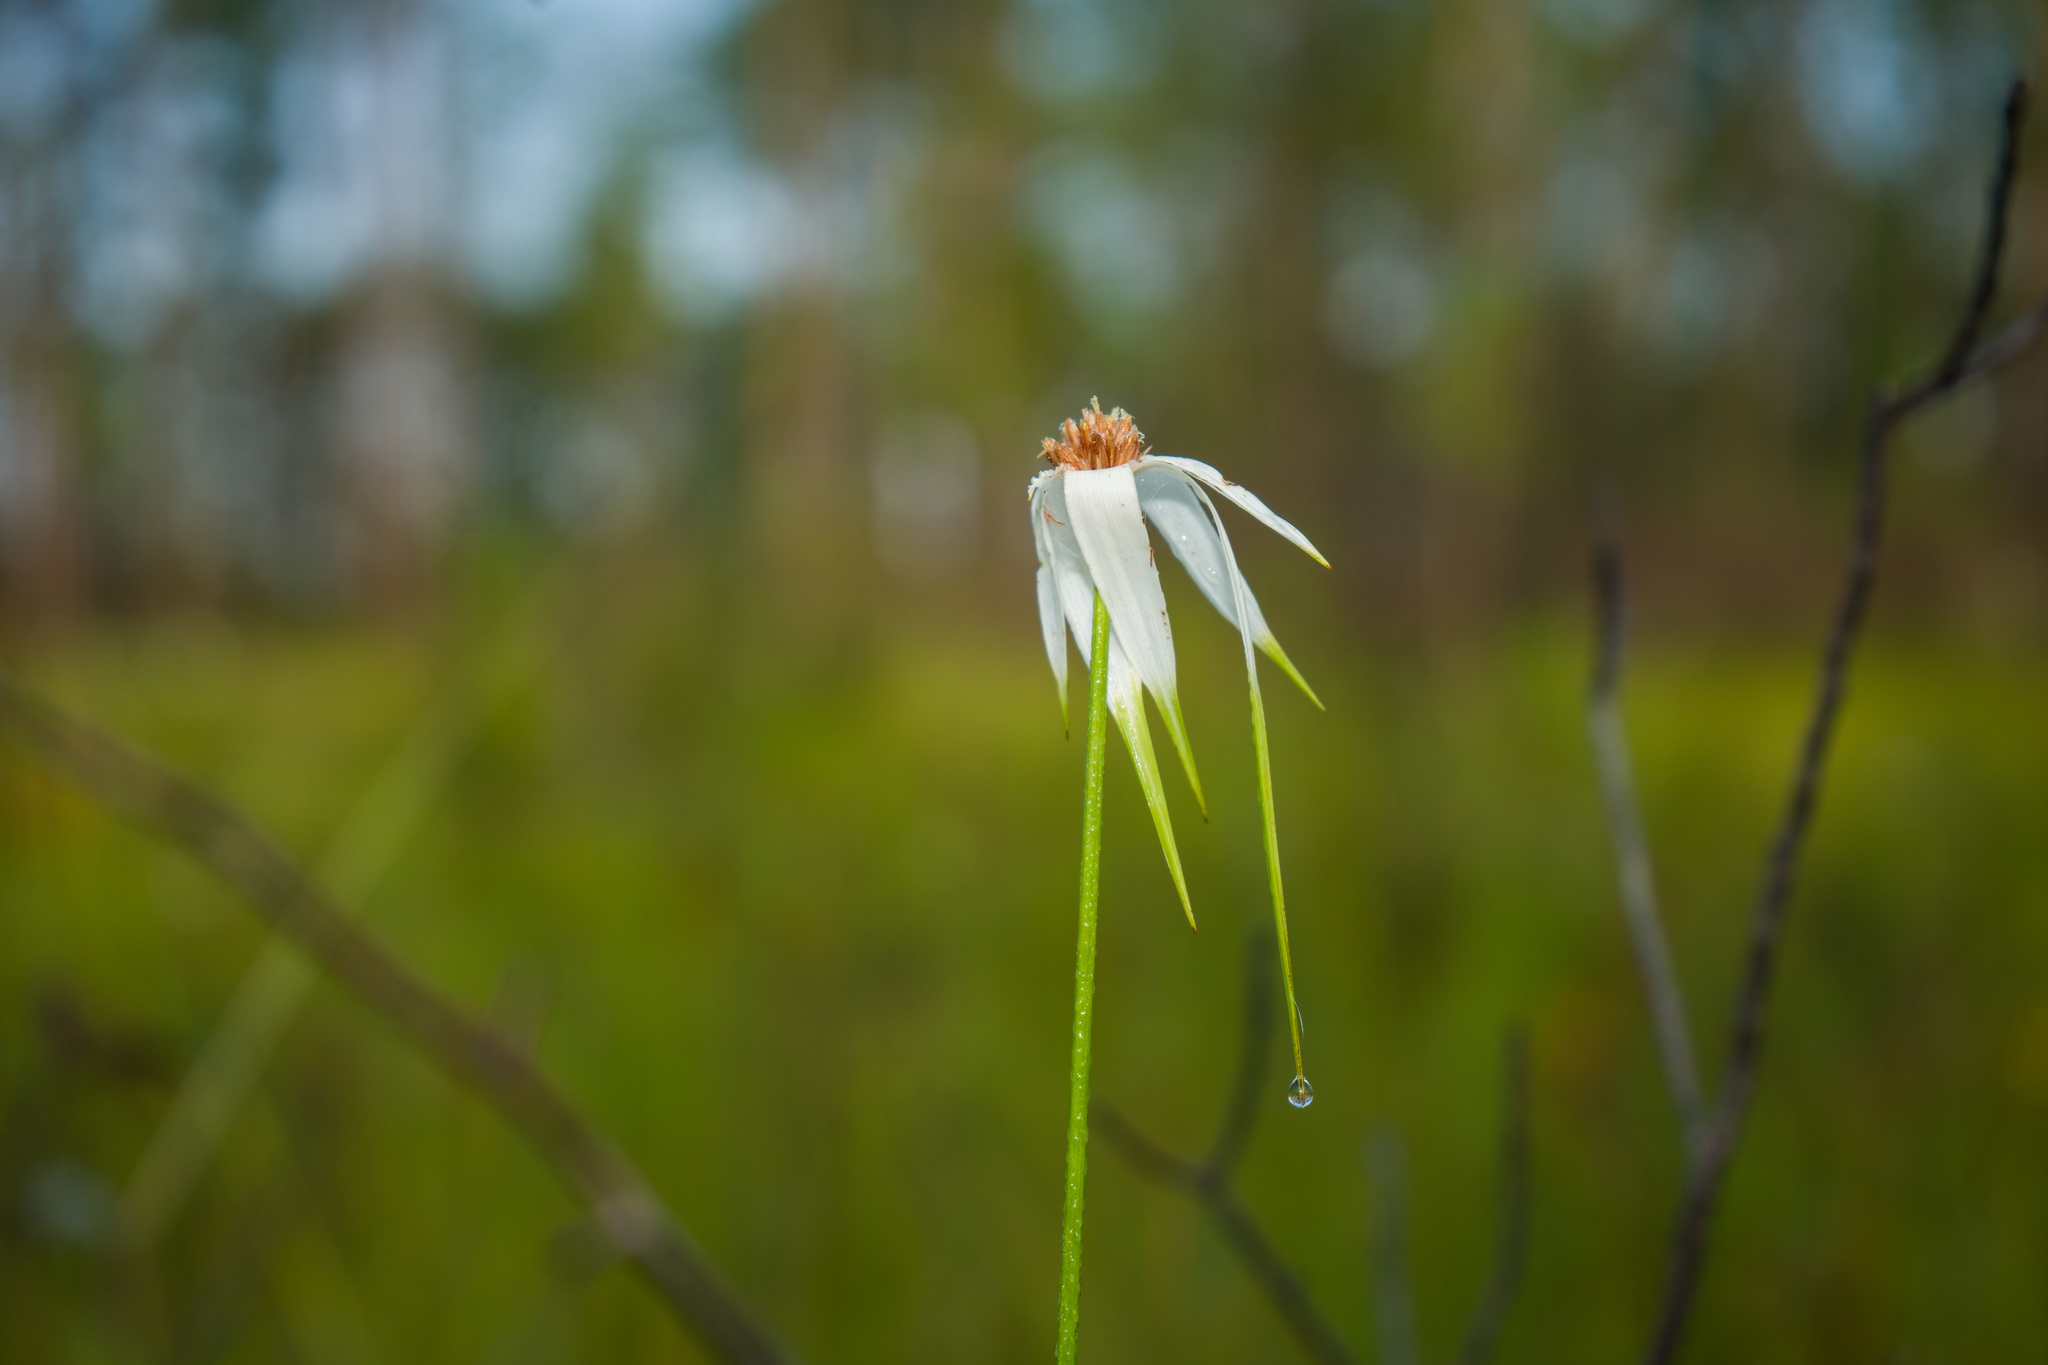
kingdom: Plantae
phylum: Tracheophyta
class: Liliopsida
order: Poales
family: Cyperaceae
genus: Rhynchospora
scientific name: Rhynchospora latifolia
